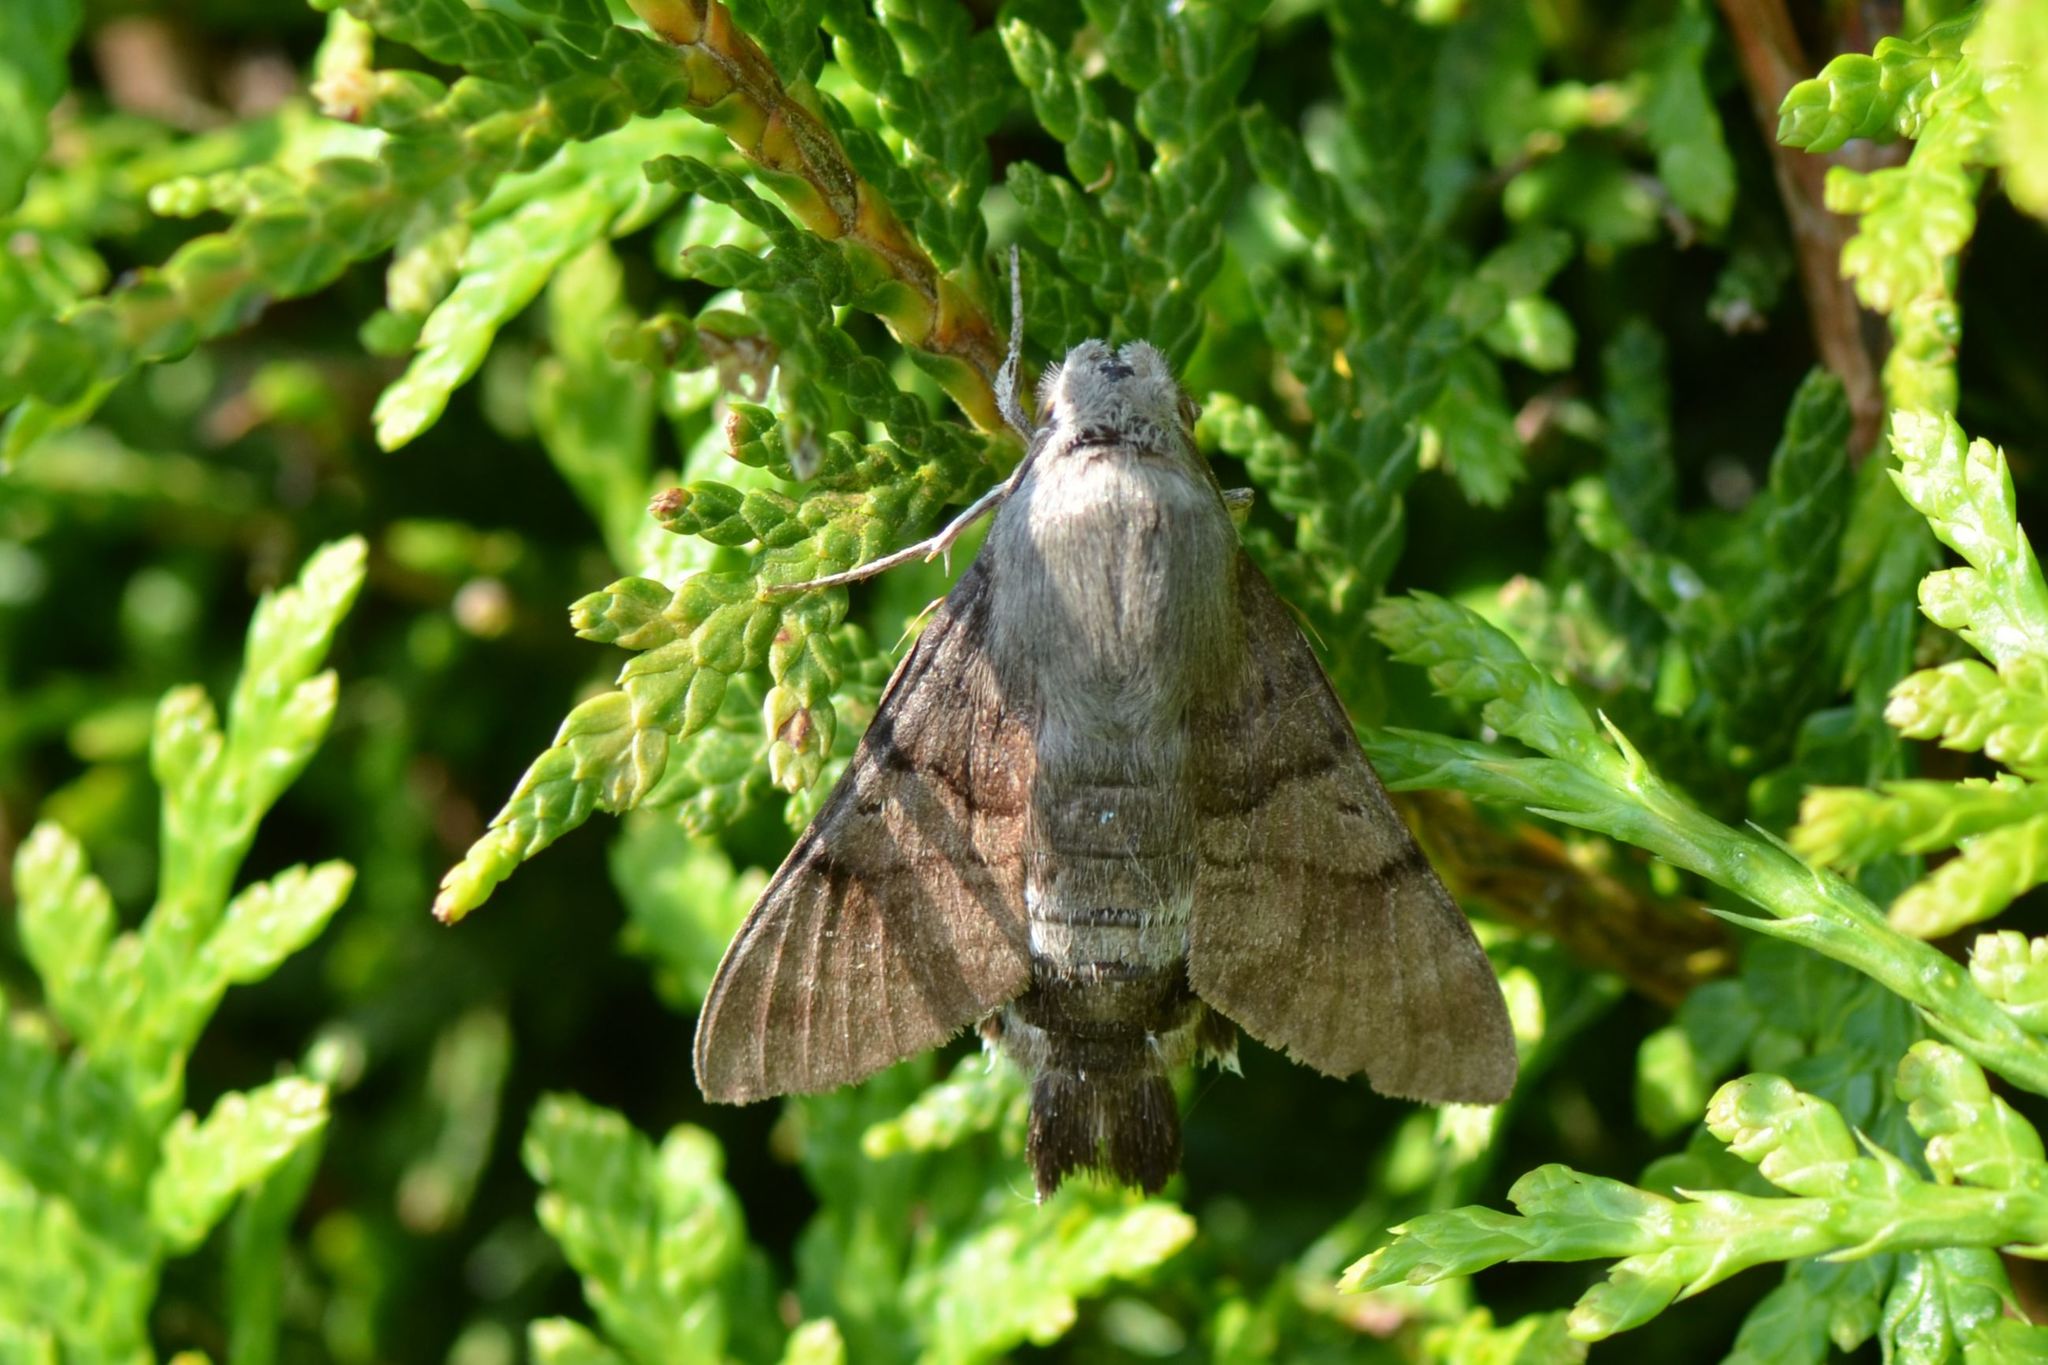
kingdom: Animalia
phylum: Arthropoda
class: Insecta
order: Lepidoptera
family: Sphingidae
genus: Macroglossum
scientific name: Macroglossum stellatarum
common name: Humming-bird hawk-moth
